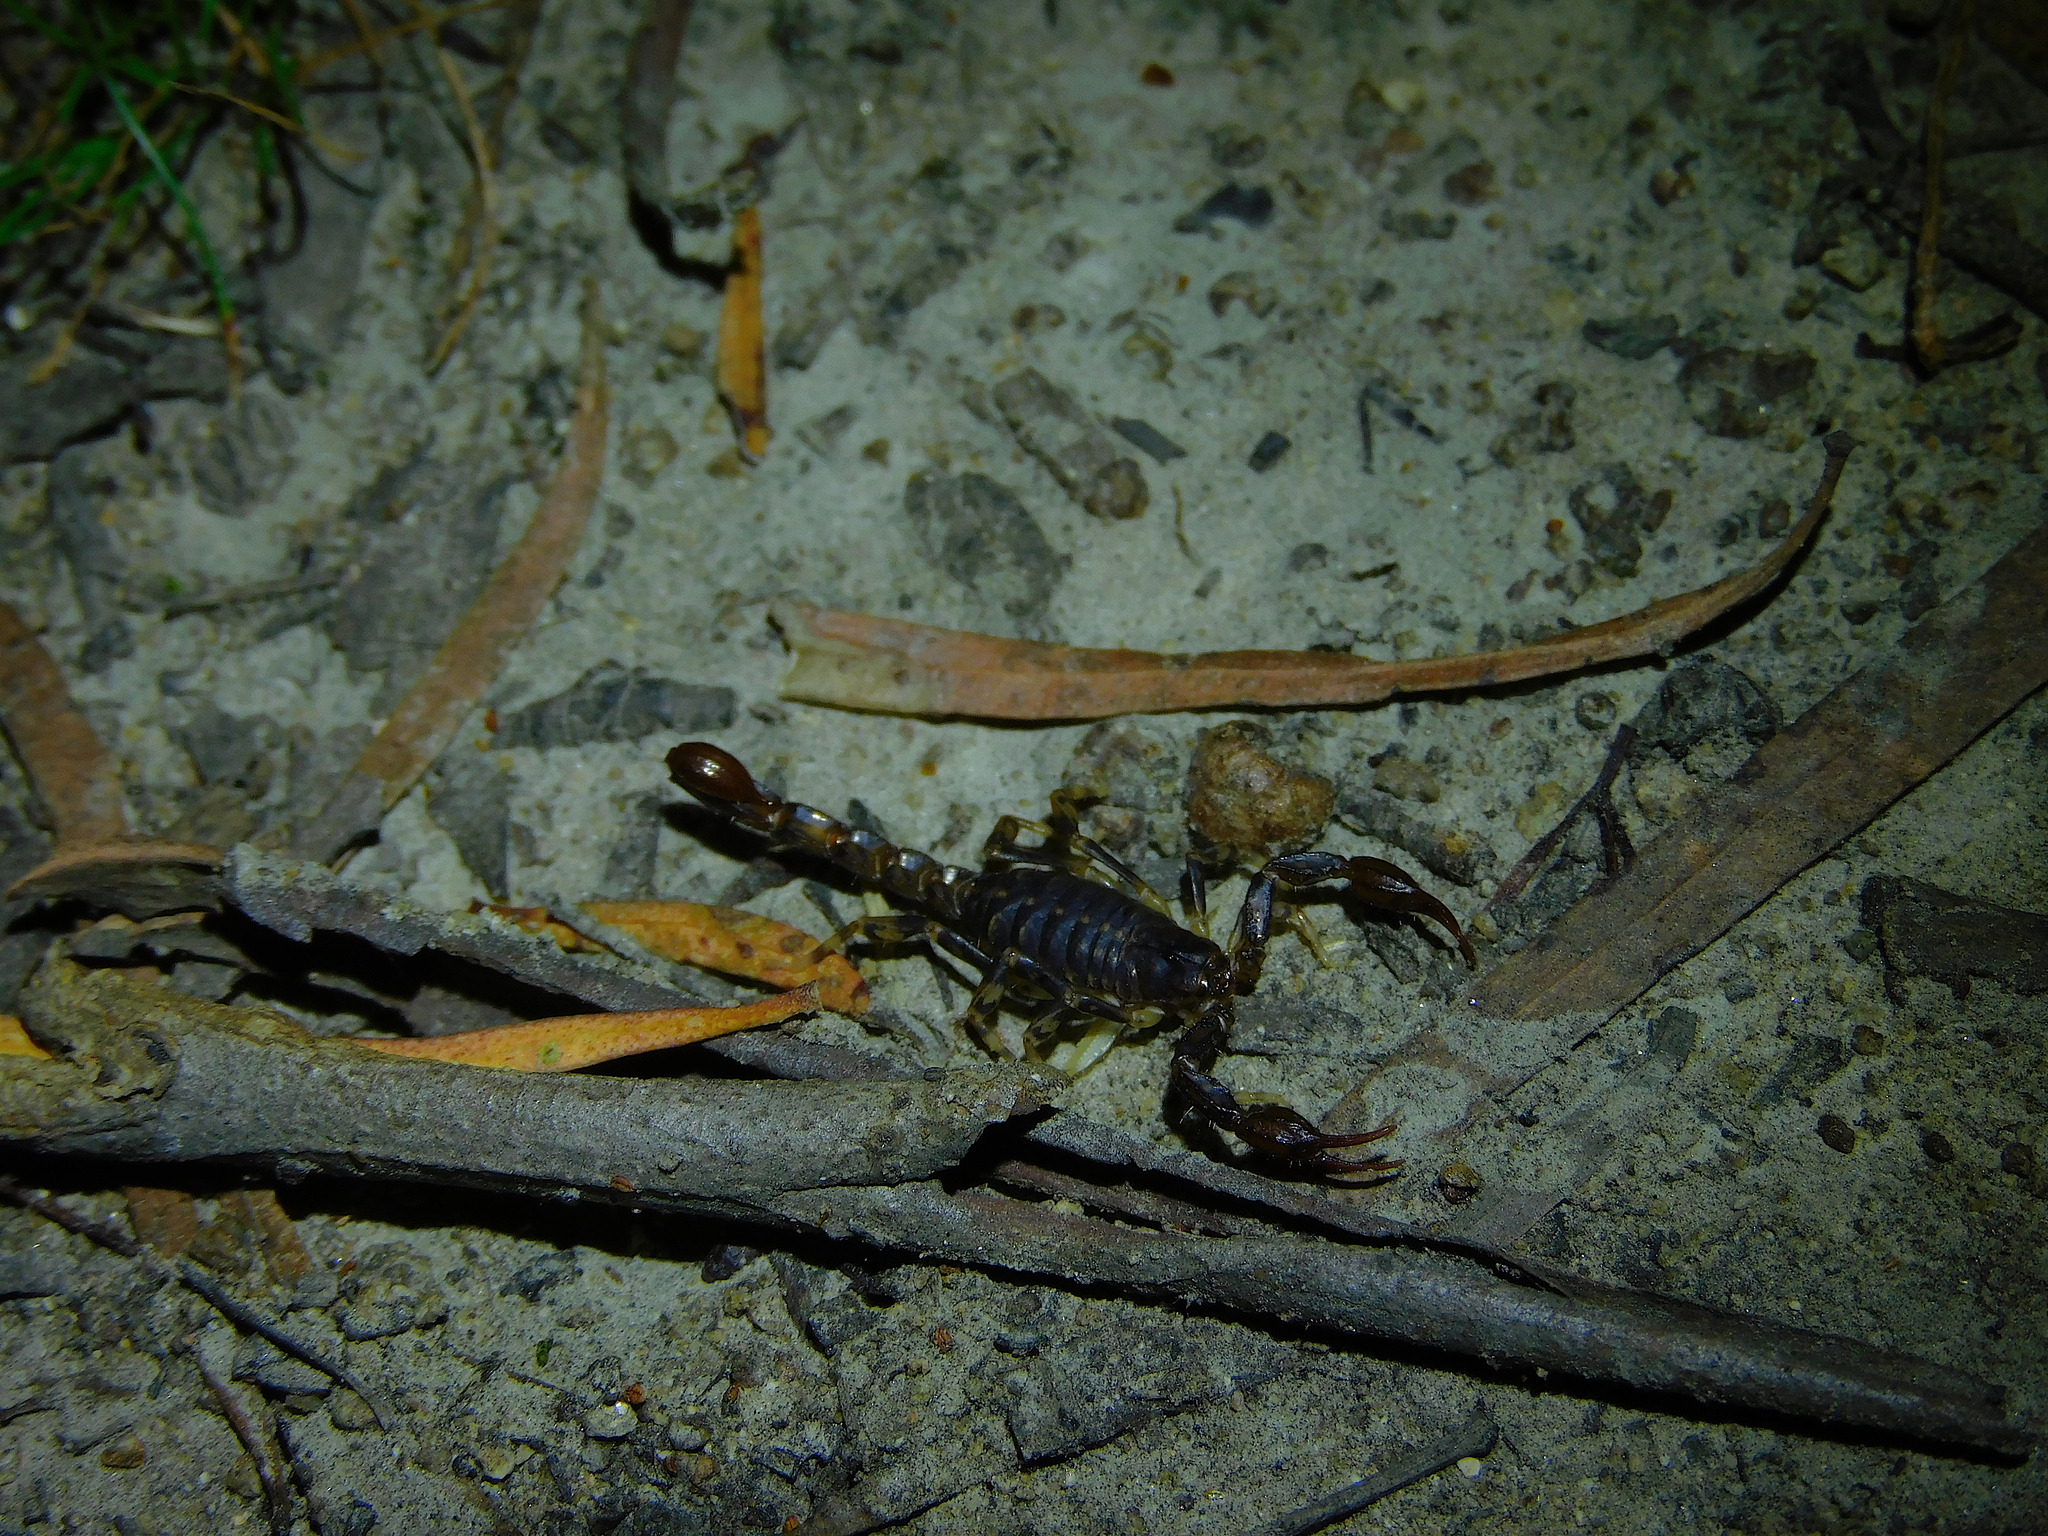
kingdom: Animalia
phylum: Arthropoda
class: Arachnida
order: Scorpiones
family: Bothriuridae
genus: Cercophonius
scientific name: Cercophonius squama
